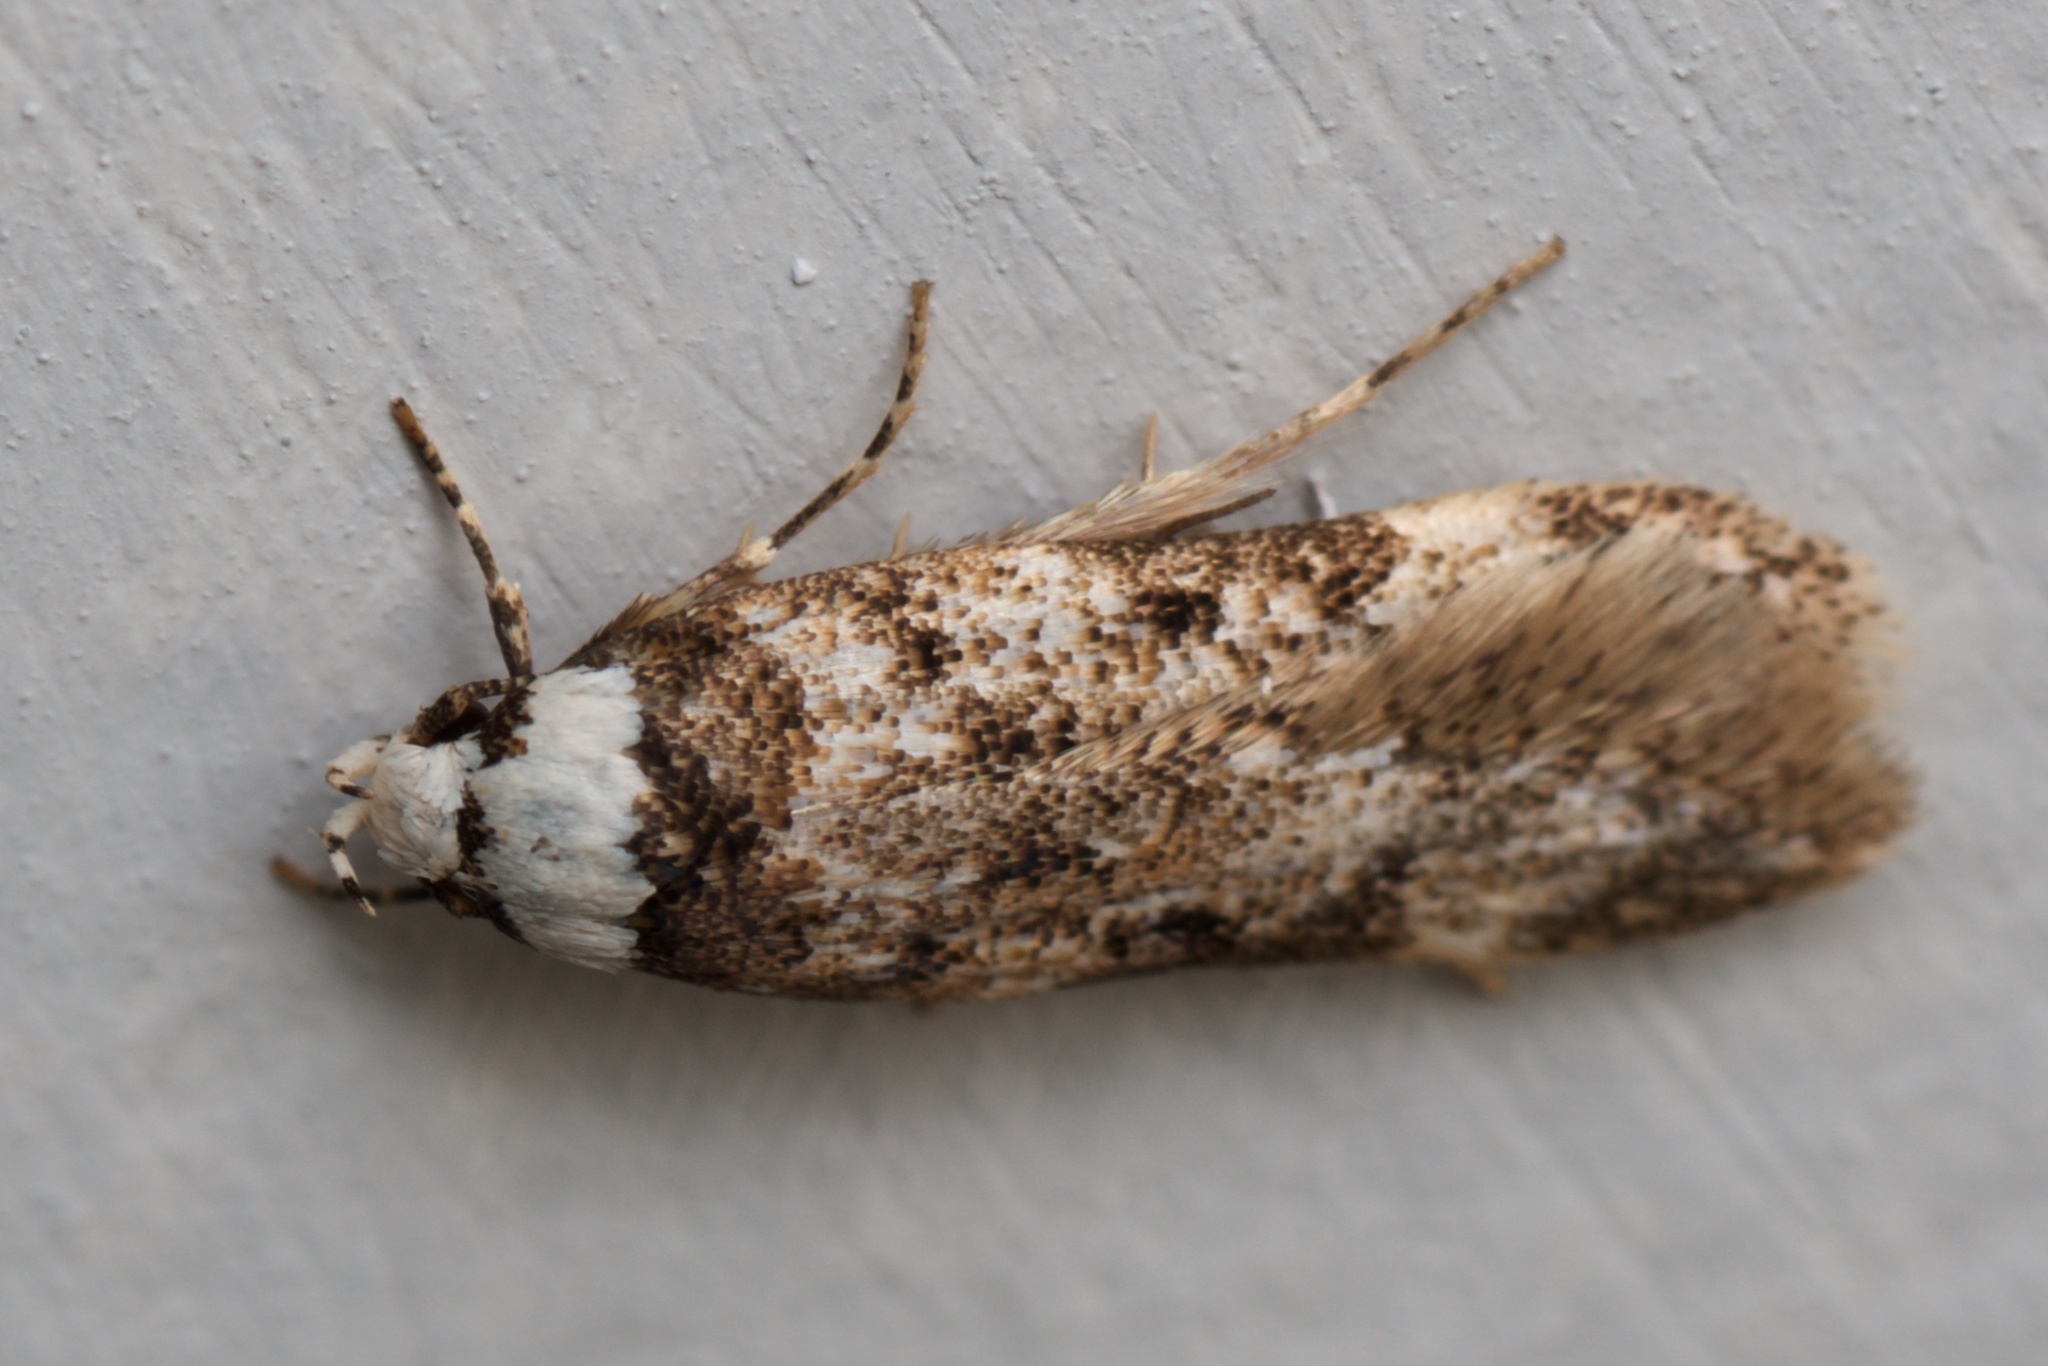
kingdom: Animalia
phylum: Arthropoda
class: Insecta
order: Lepidoptera
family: Oecophoridae
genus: Endrosis
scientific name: Endrosis sarcitrella
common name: White-shouldered house moth
